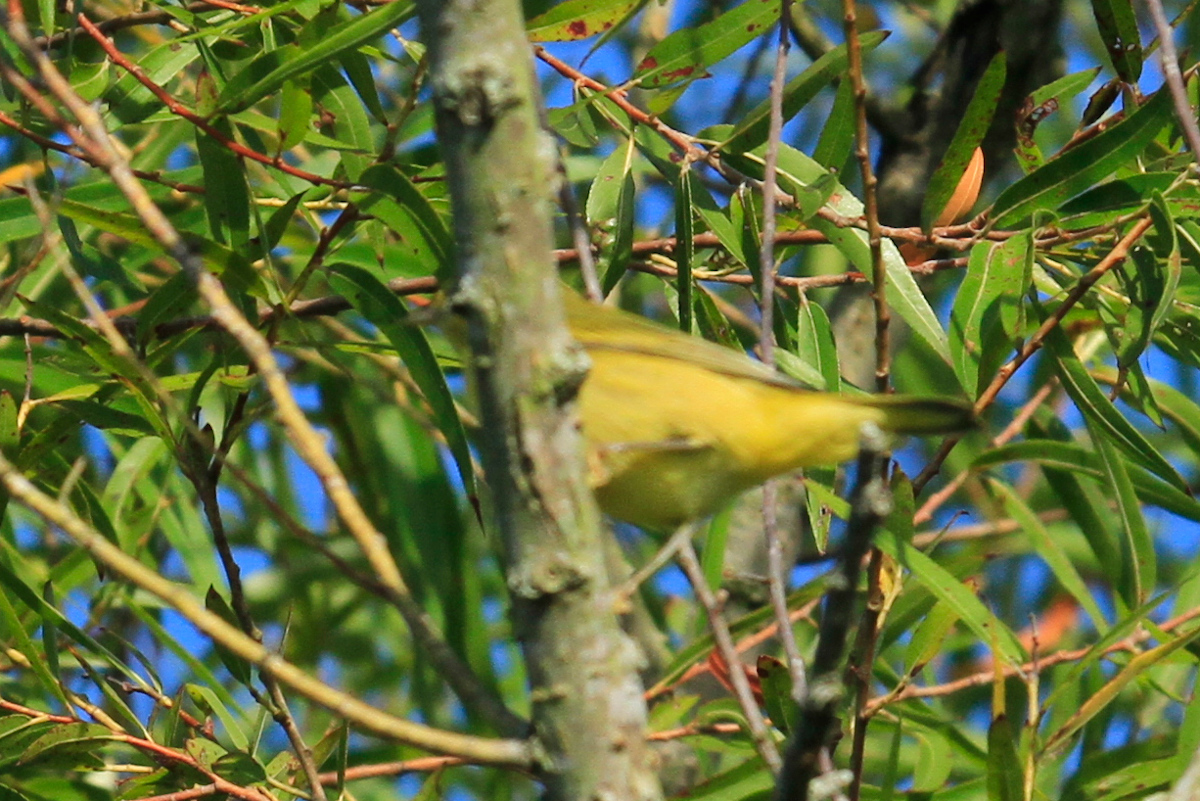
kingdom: Animalia
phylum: Chordata
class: Aves
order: Passeriformes
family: Parulidae
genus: Setophaga
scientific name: Setophaga petechia
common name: Yellow warbler
